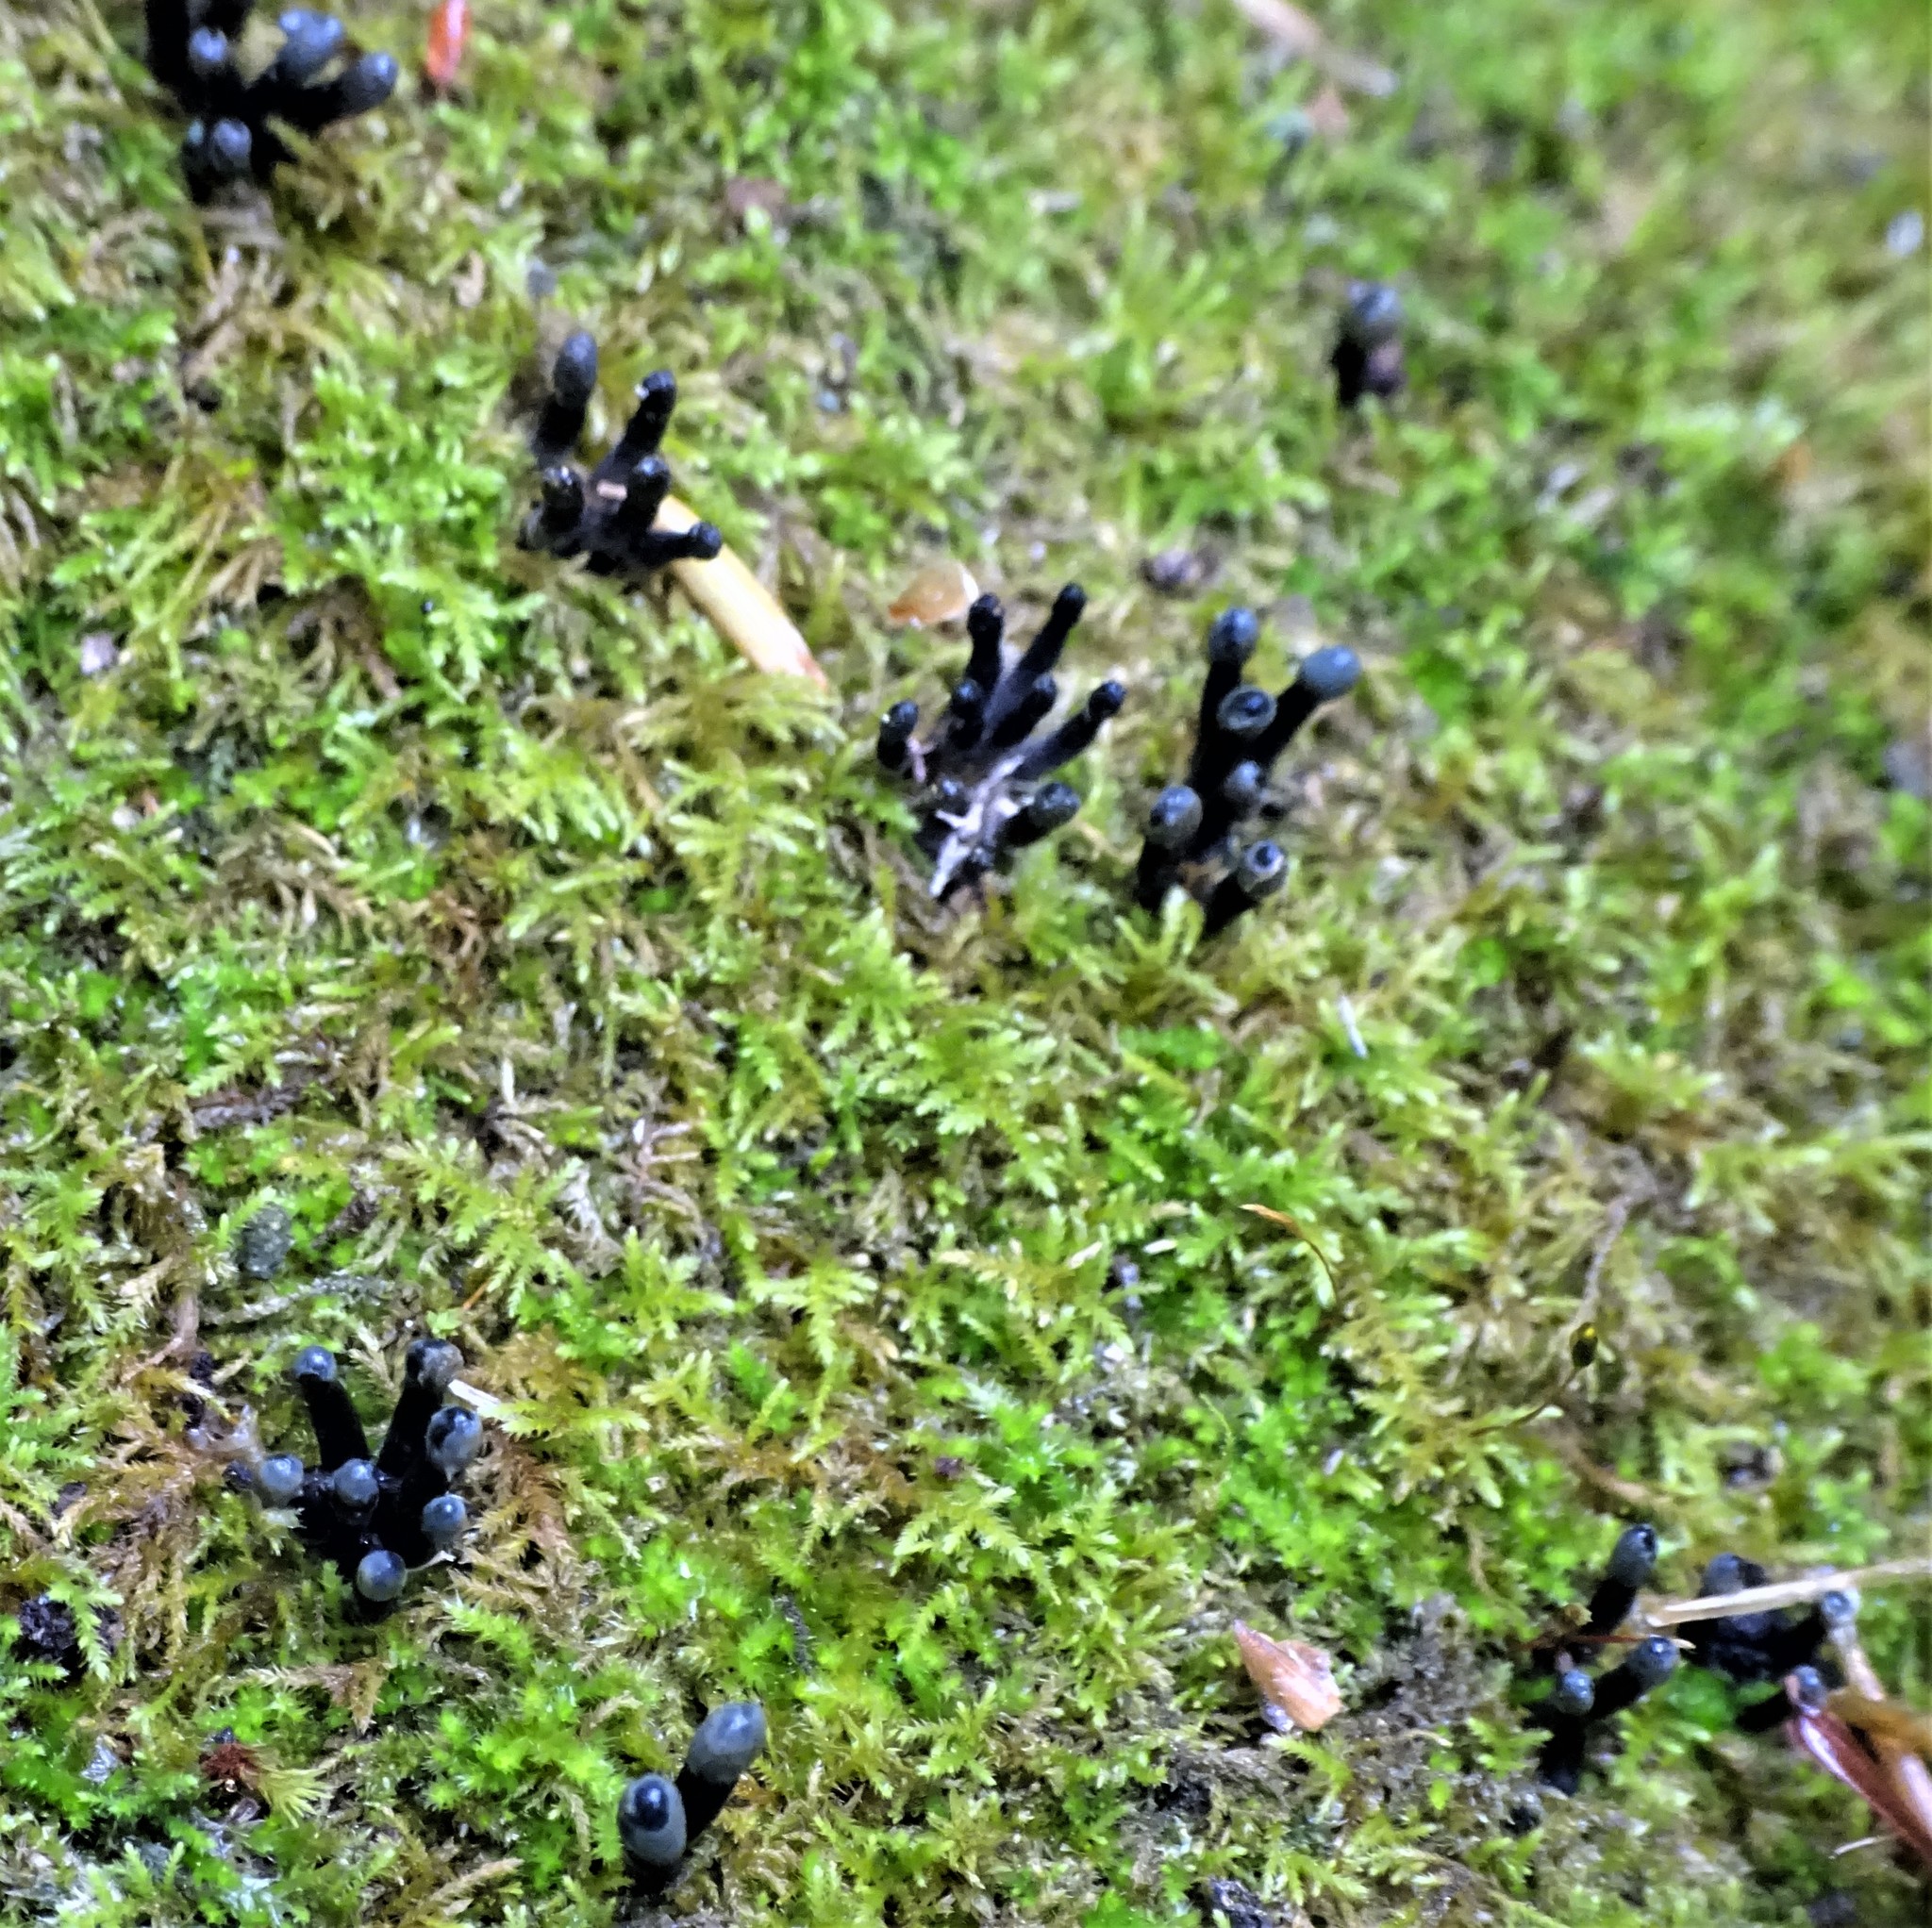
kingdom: Fungi
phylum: Ascomycota
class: Leotiomycetes
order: Helotiales
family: Bulgariaceae
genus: Holwaya
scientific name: Holwaya mucida
